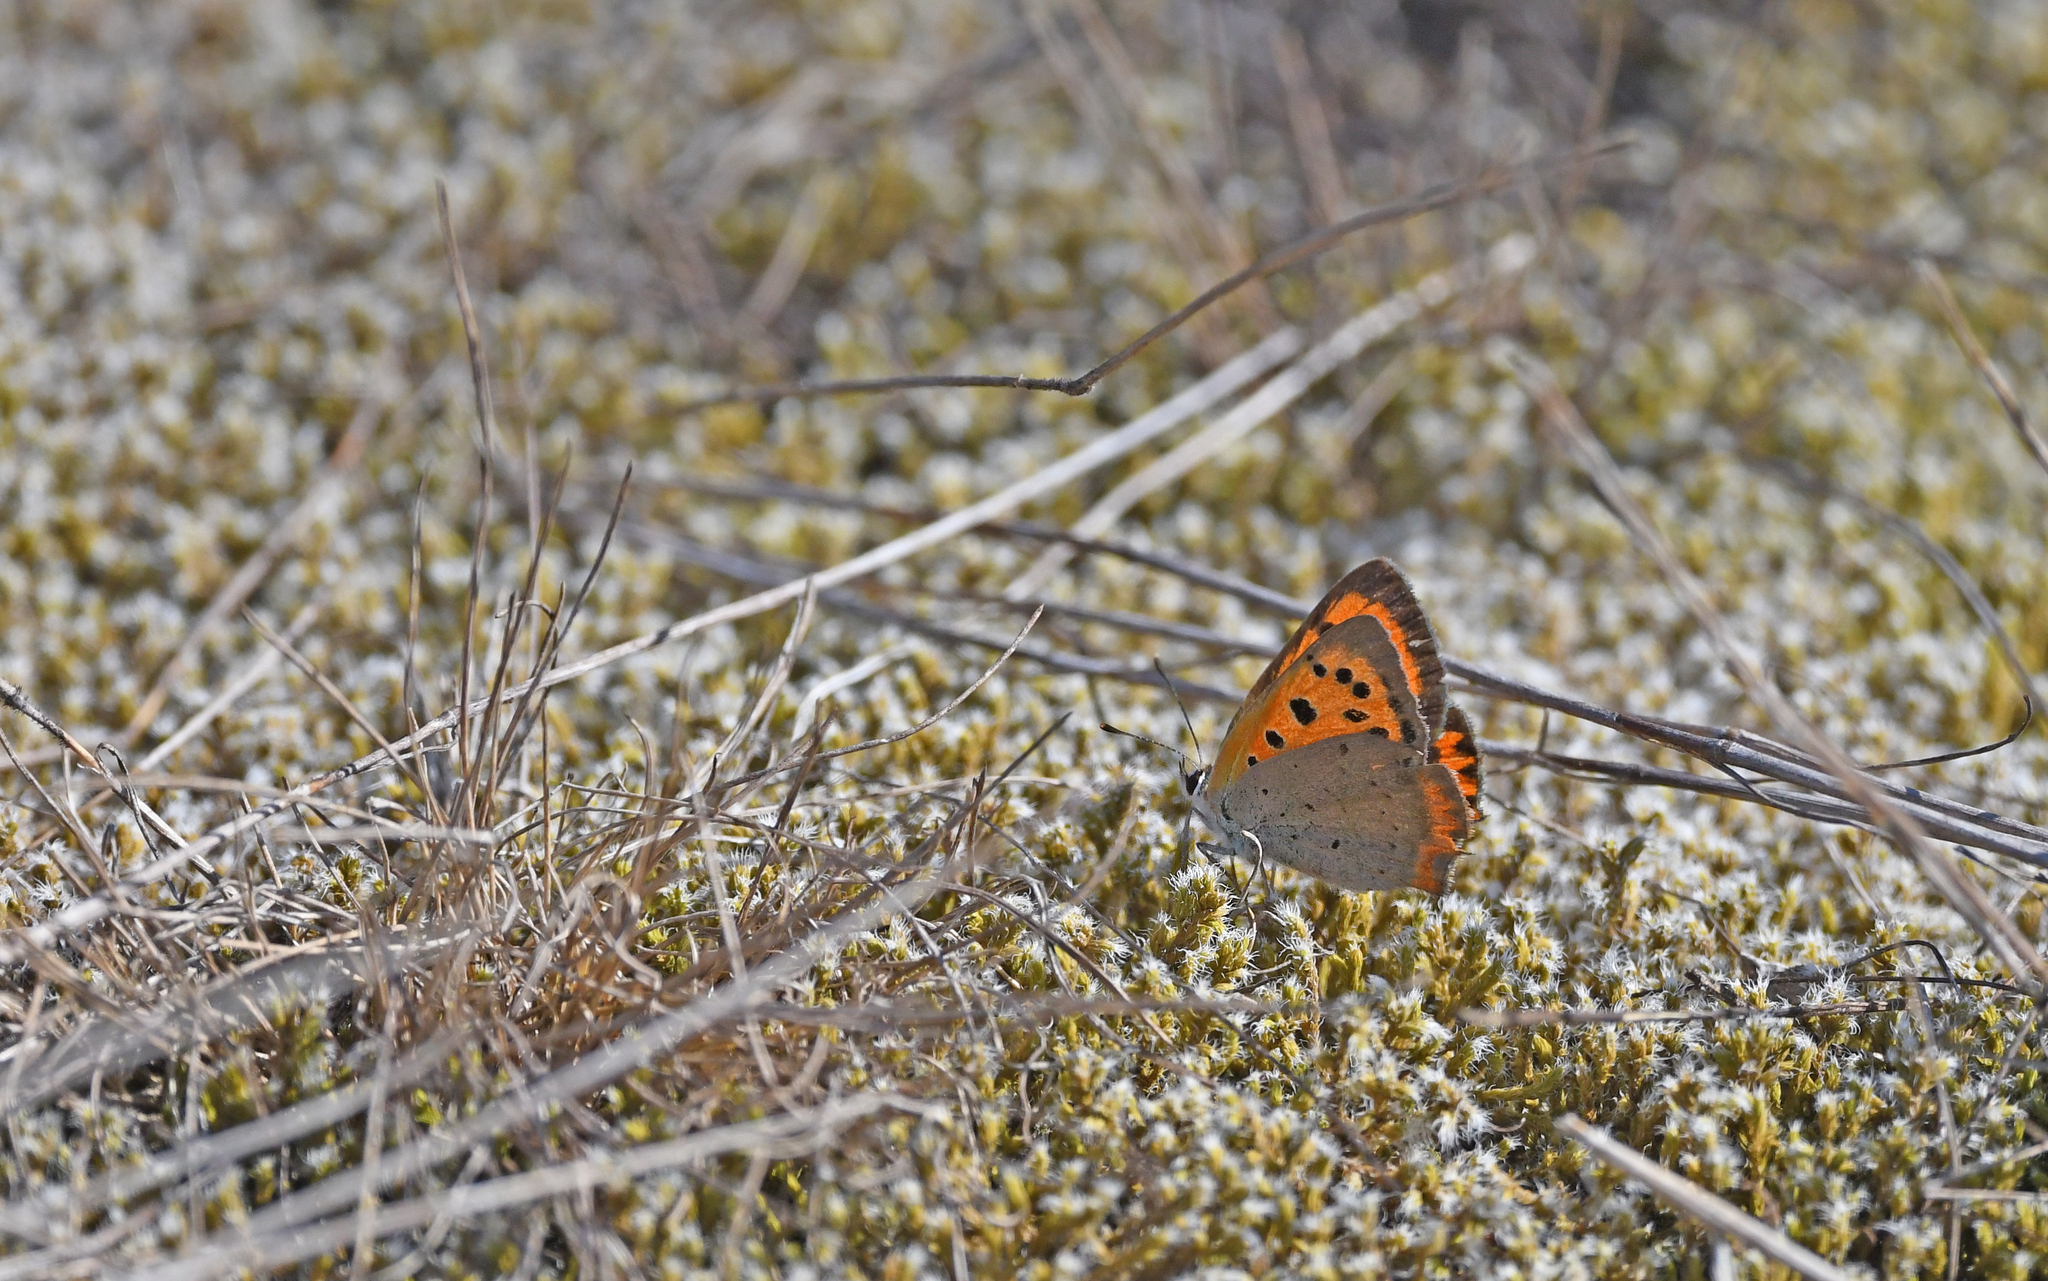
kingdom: Animalia
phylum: Arthropoda
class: Insecta
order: Lepidoptera
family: Lycaenidae
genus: Lycaena
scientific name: Lycaena phlaeas
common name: Small copper
